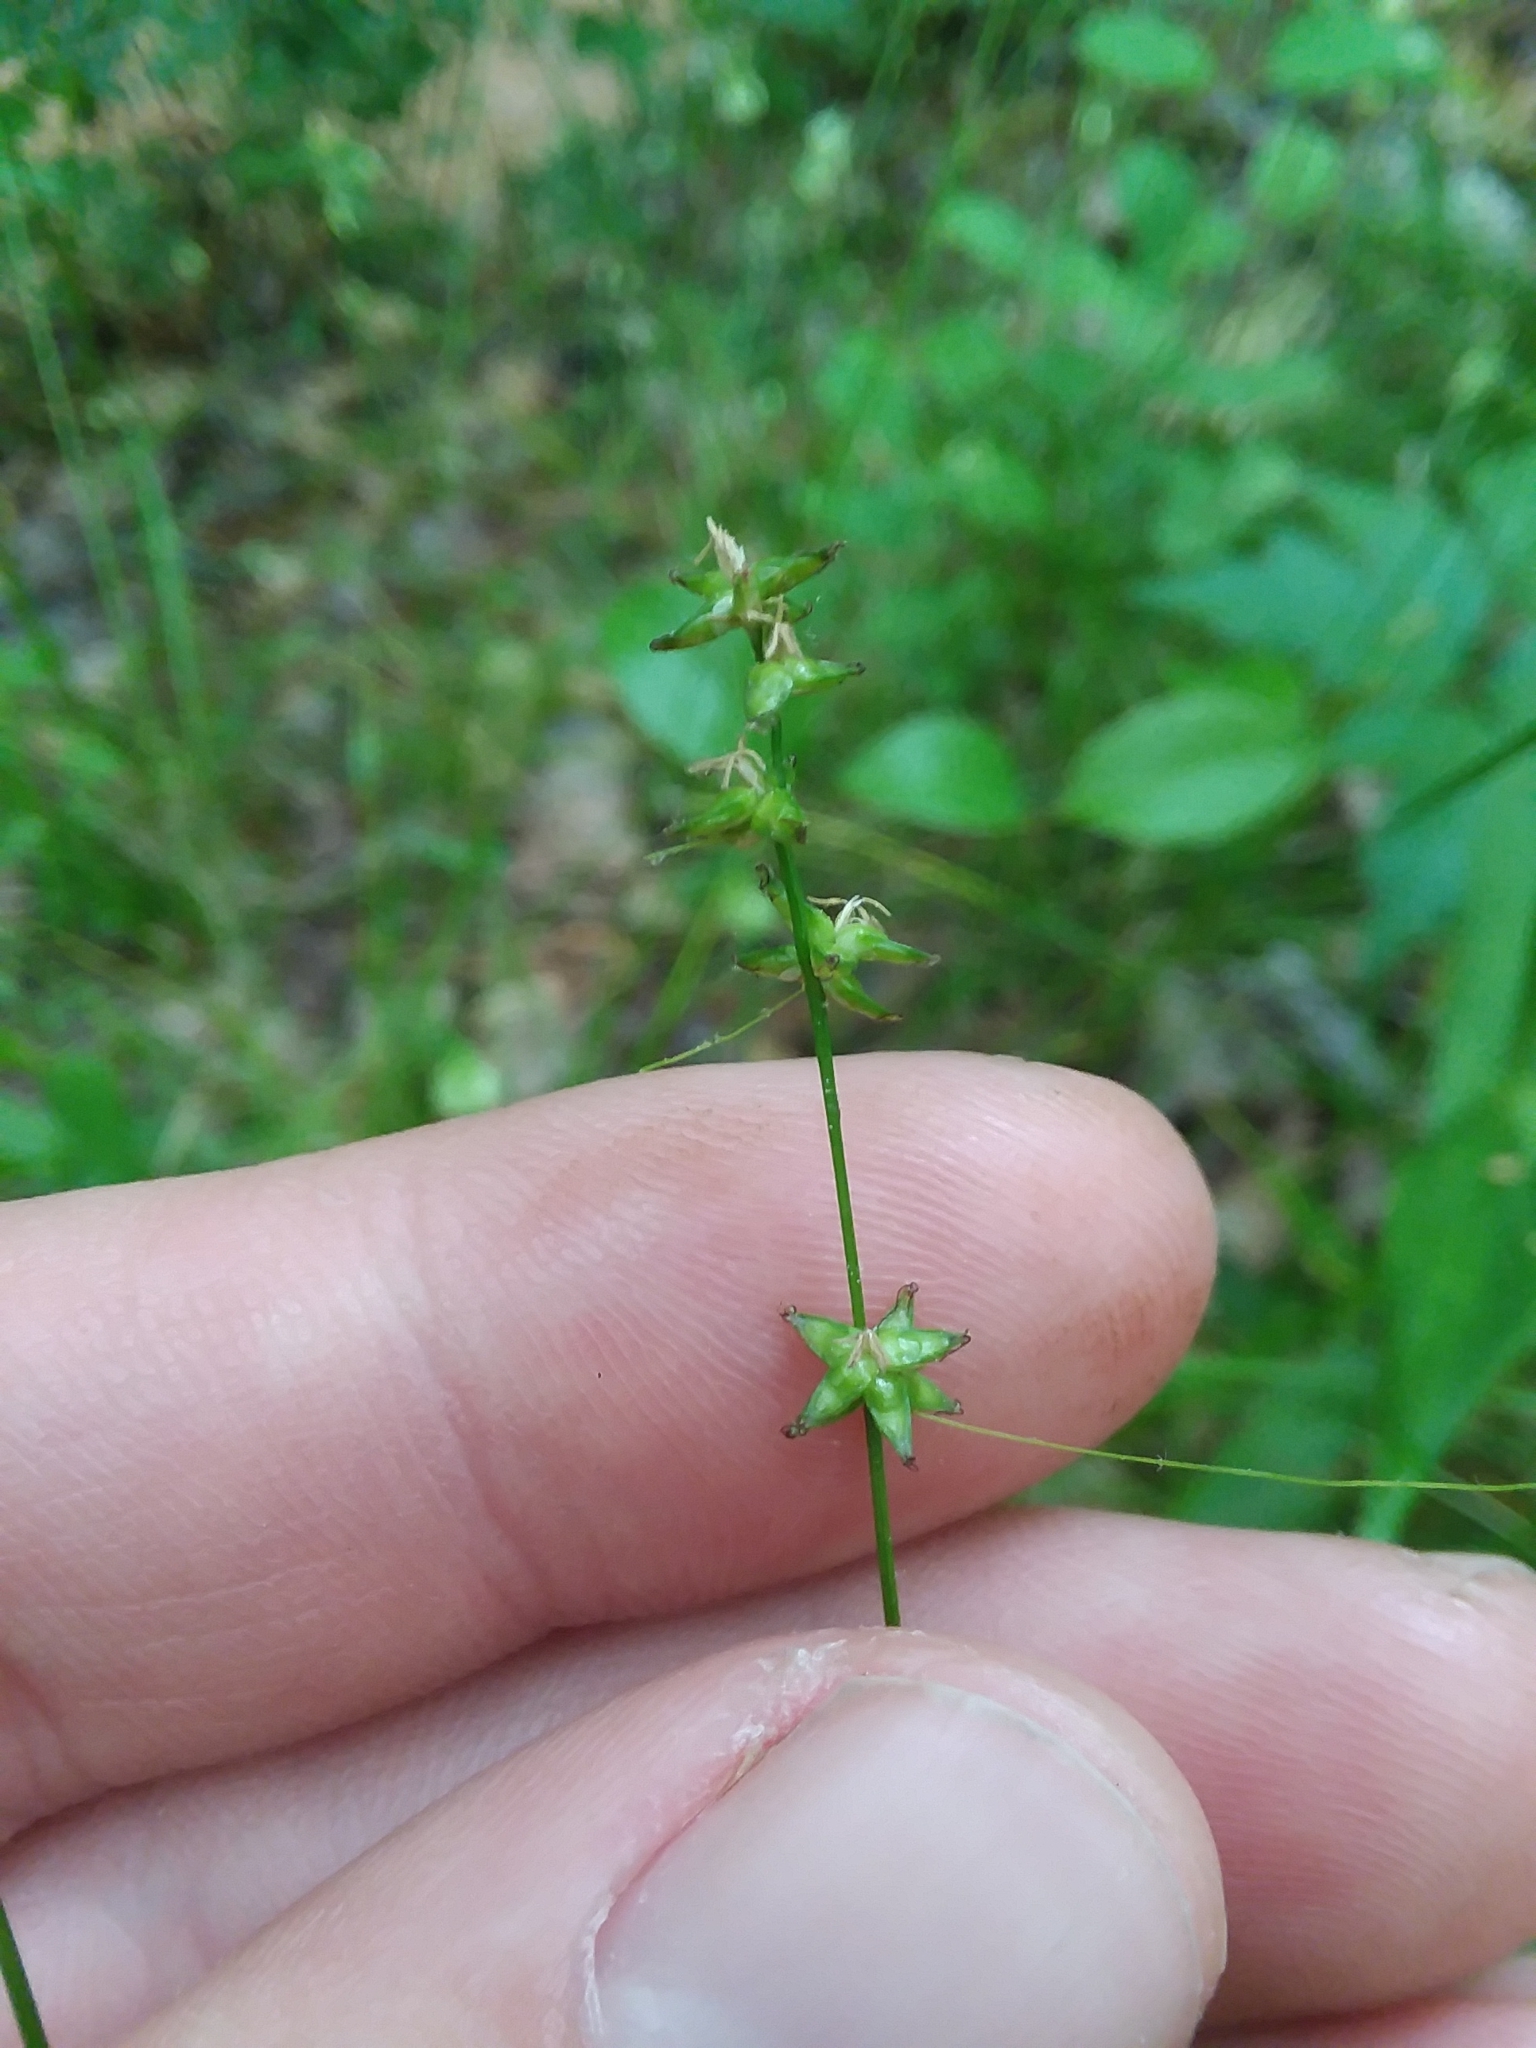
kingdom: Plantae
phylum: Tracheophyta
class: Liliopsida
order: Poales
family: Cyperaceae
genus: Carex
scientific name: Carex radiata
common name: Eastern star sedge
